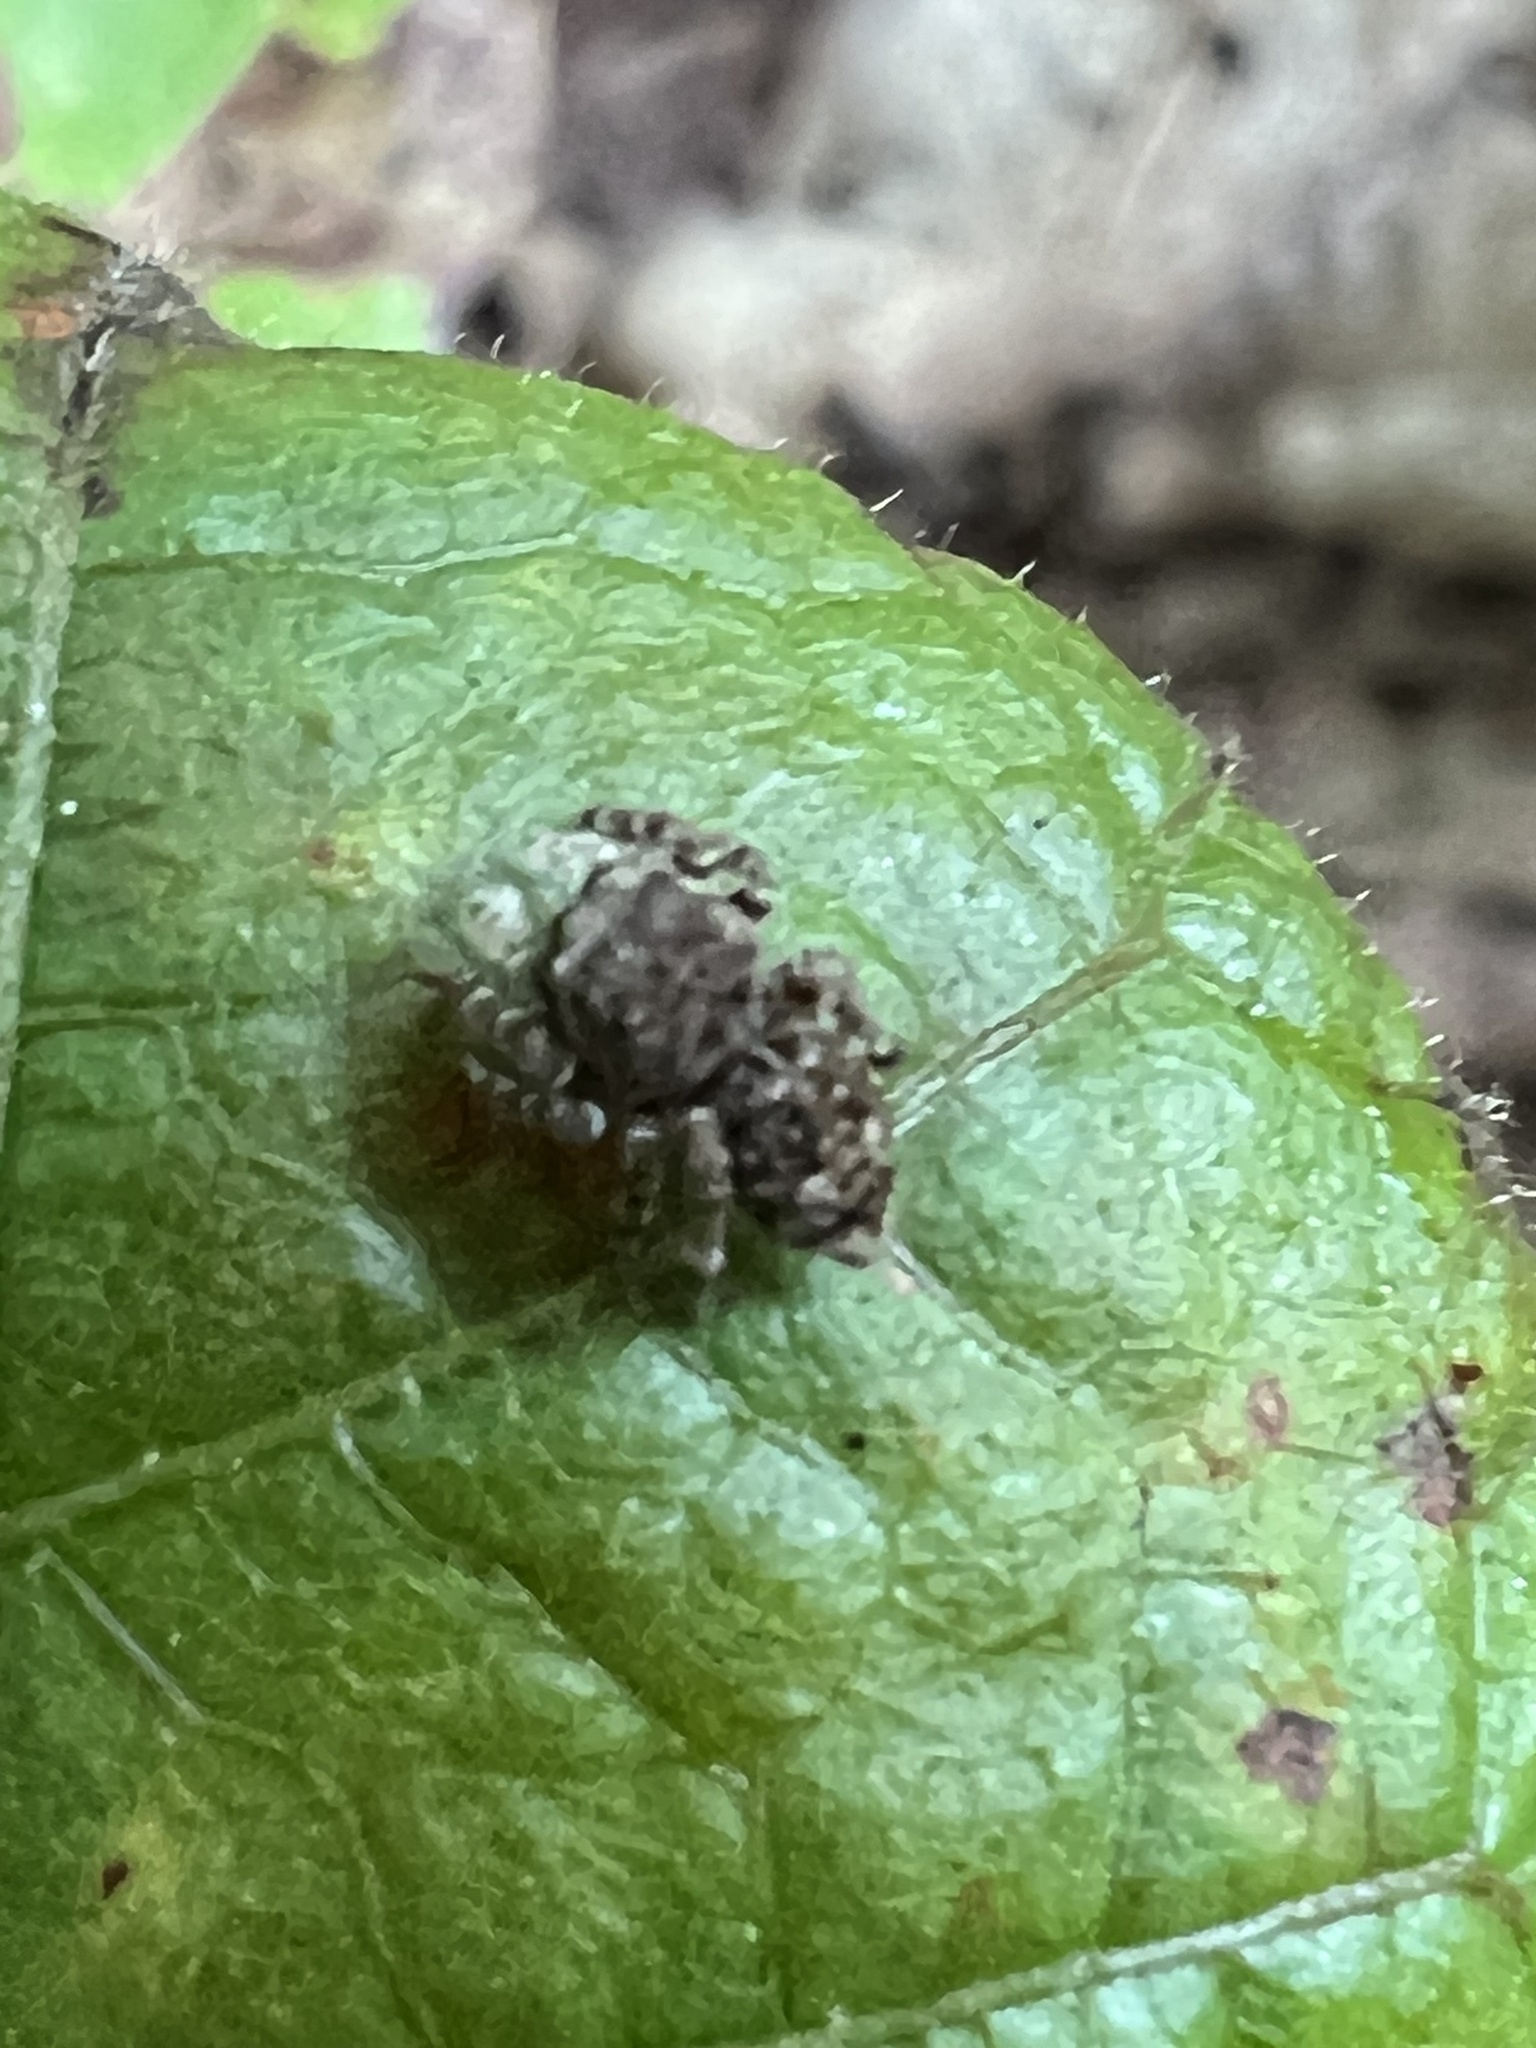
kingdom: Animalia
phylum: Arthropoda
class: Arachnida
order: Araneae
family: Salticidae
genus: Attulus
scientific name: Attulus fasciger
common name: Asiatic wall jumping spider
